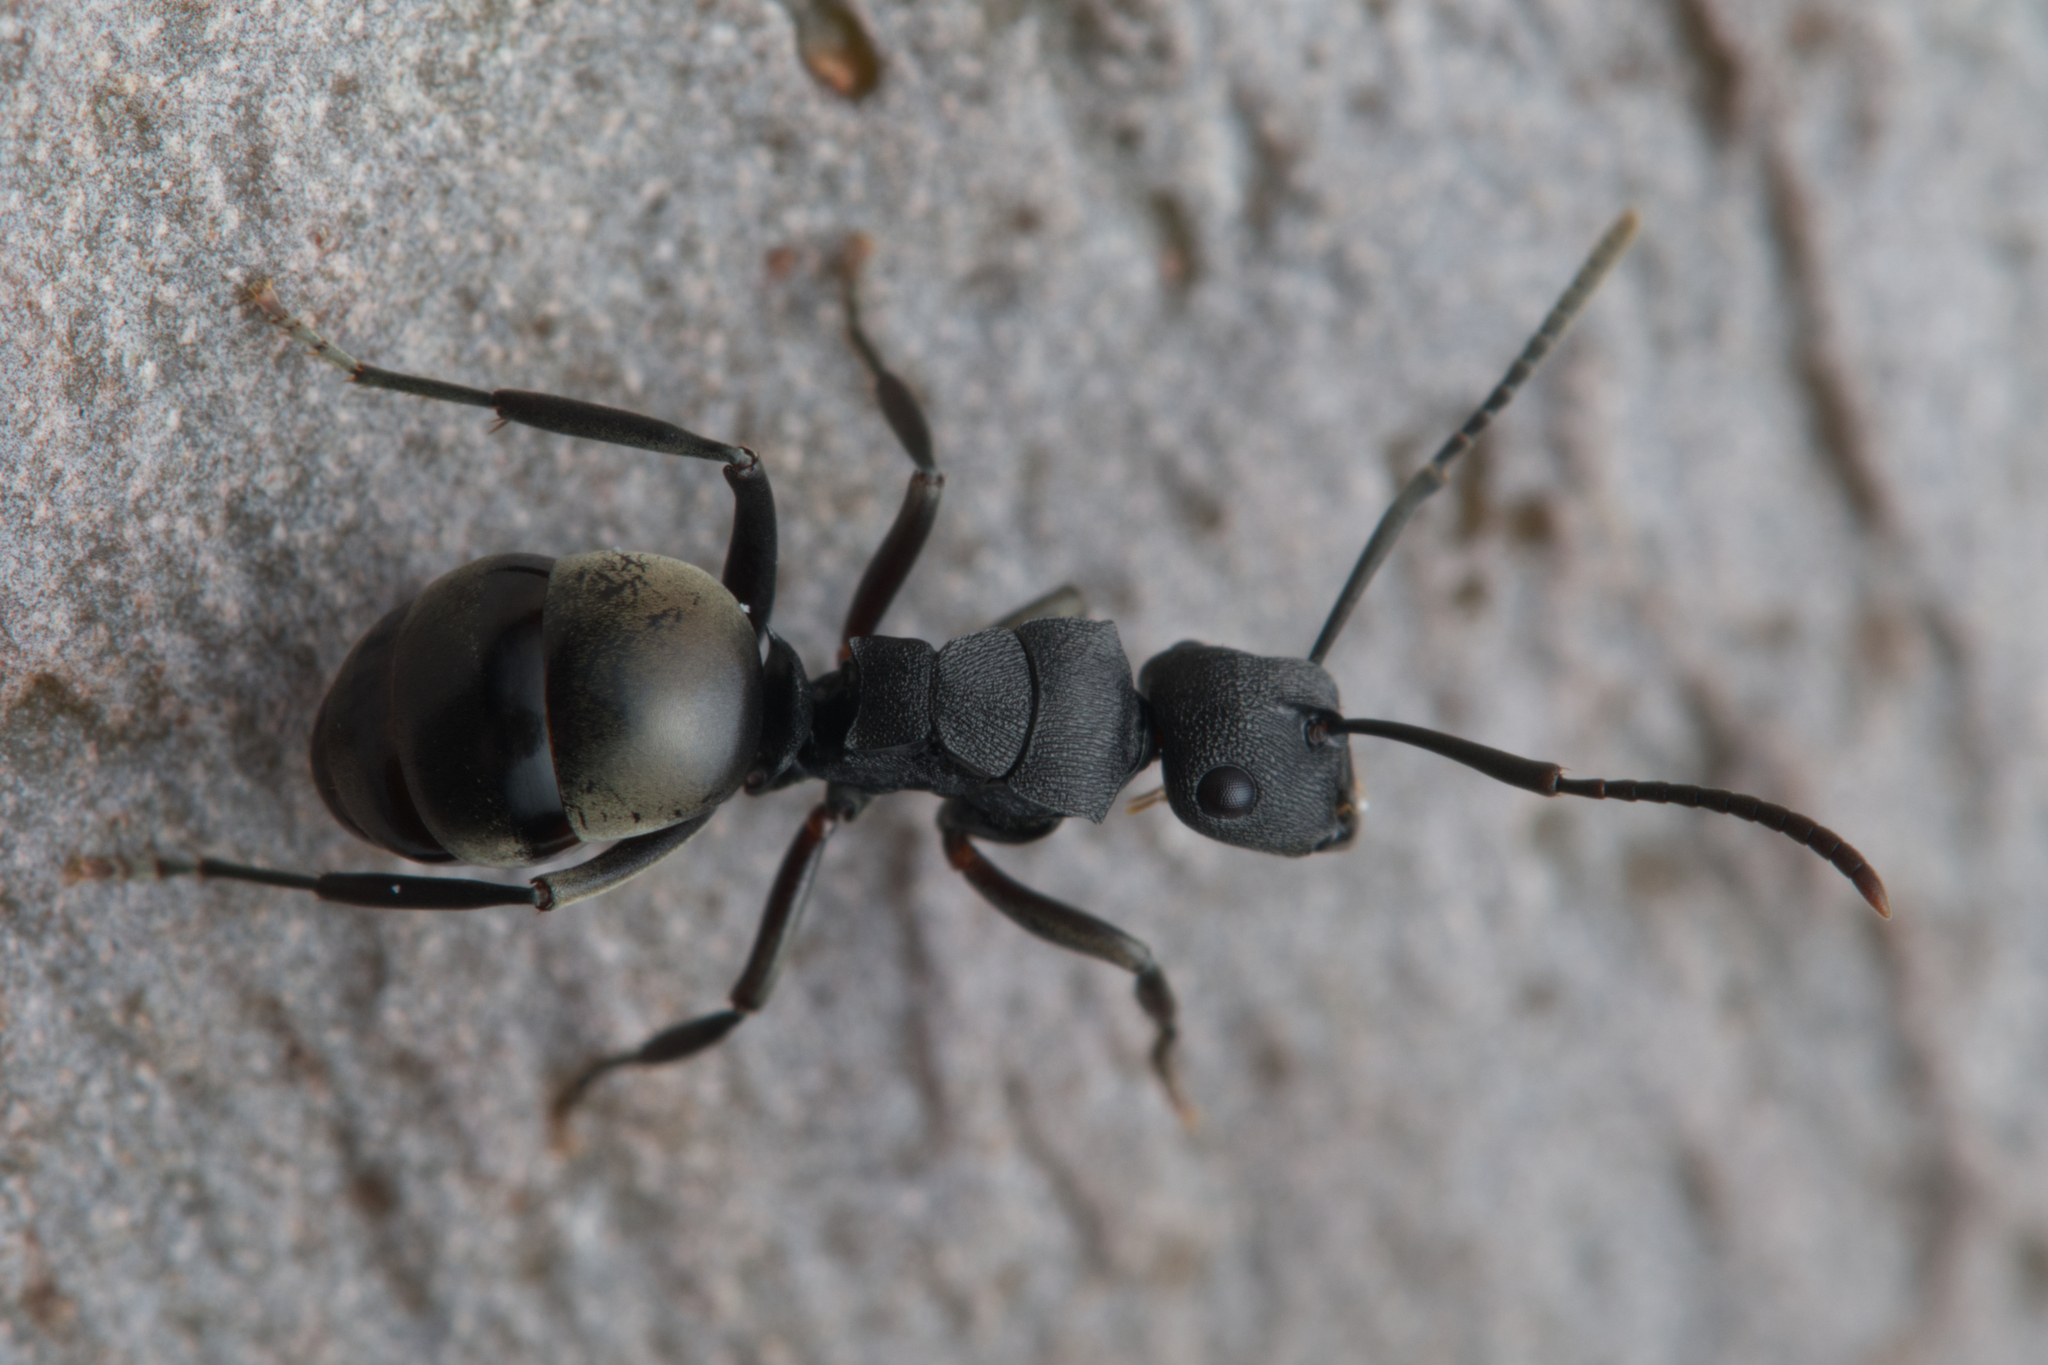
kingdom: Animalia
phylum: Arthropoda
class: Insecta
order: Hymenoptera
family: Formicidae
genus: Polyrhachis
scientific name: Polyrhachis phryne
